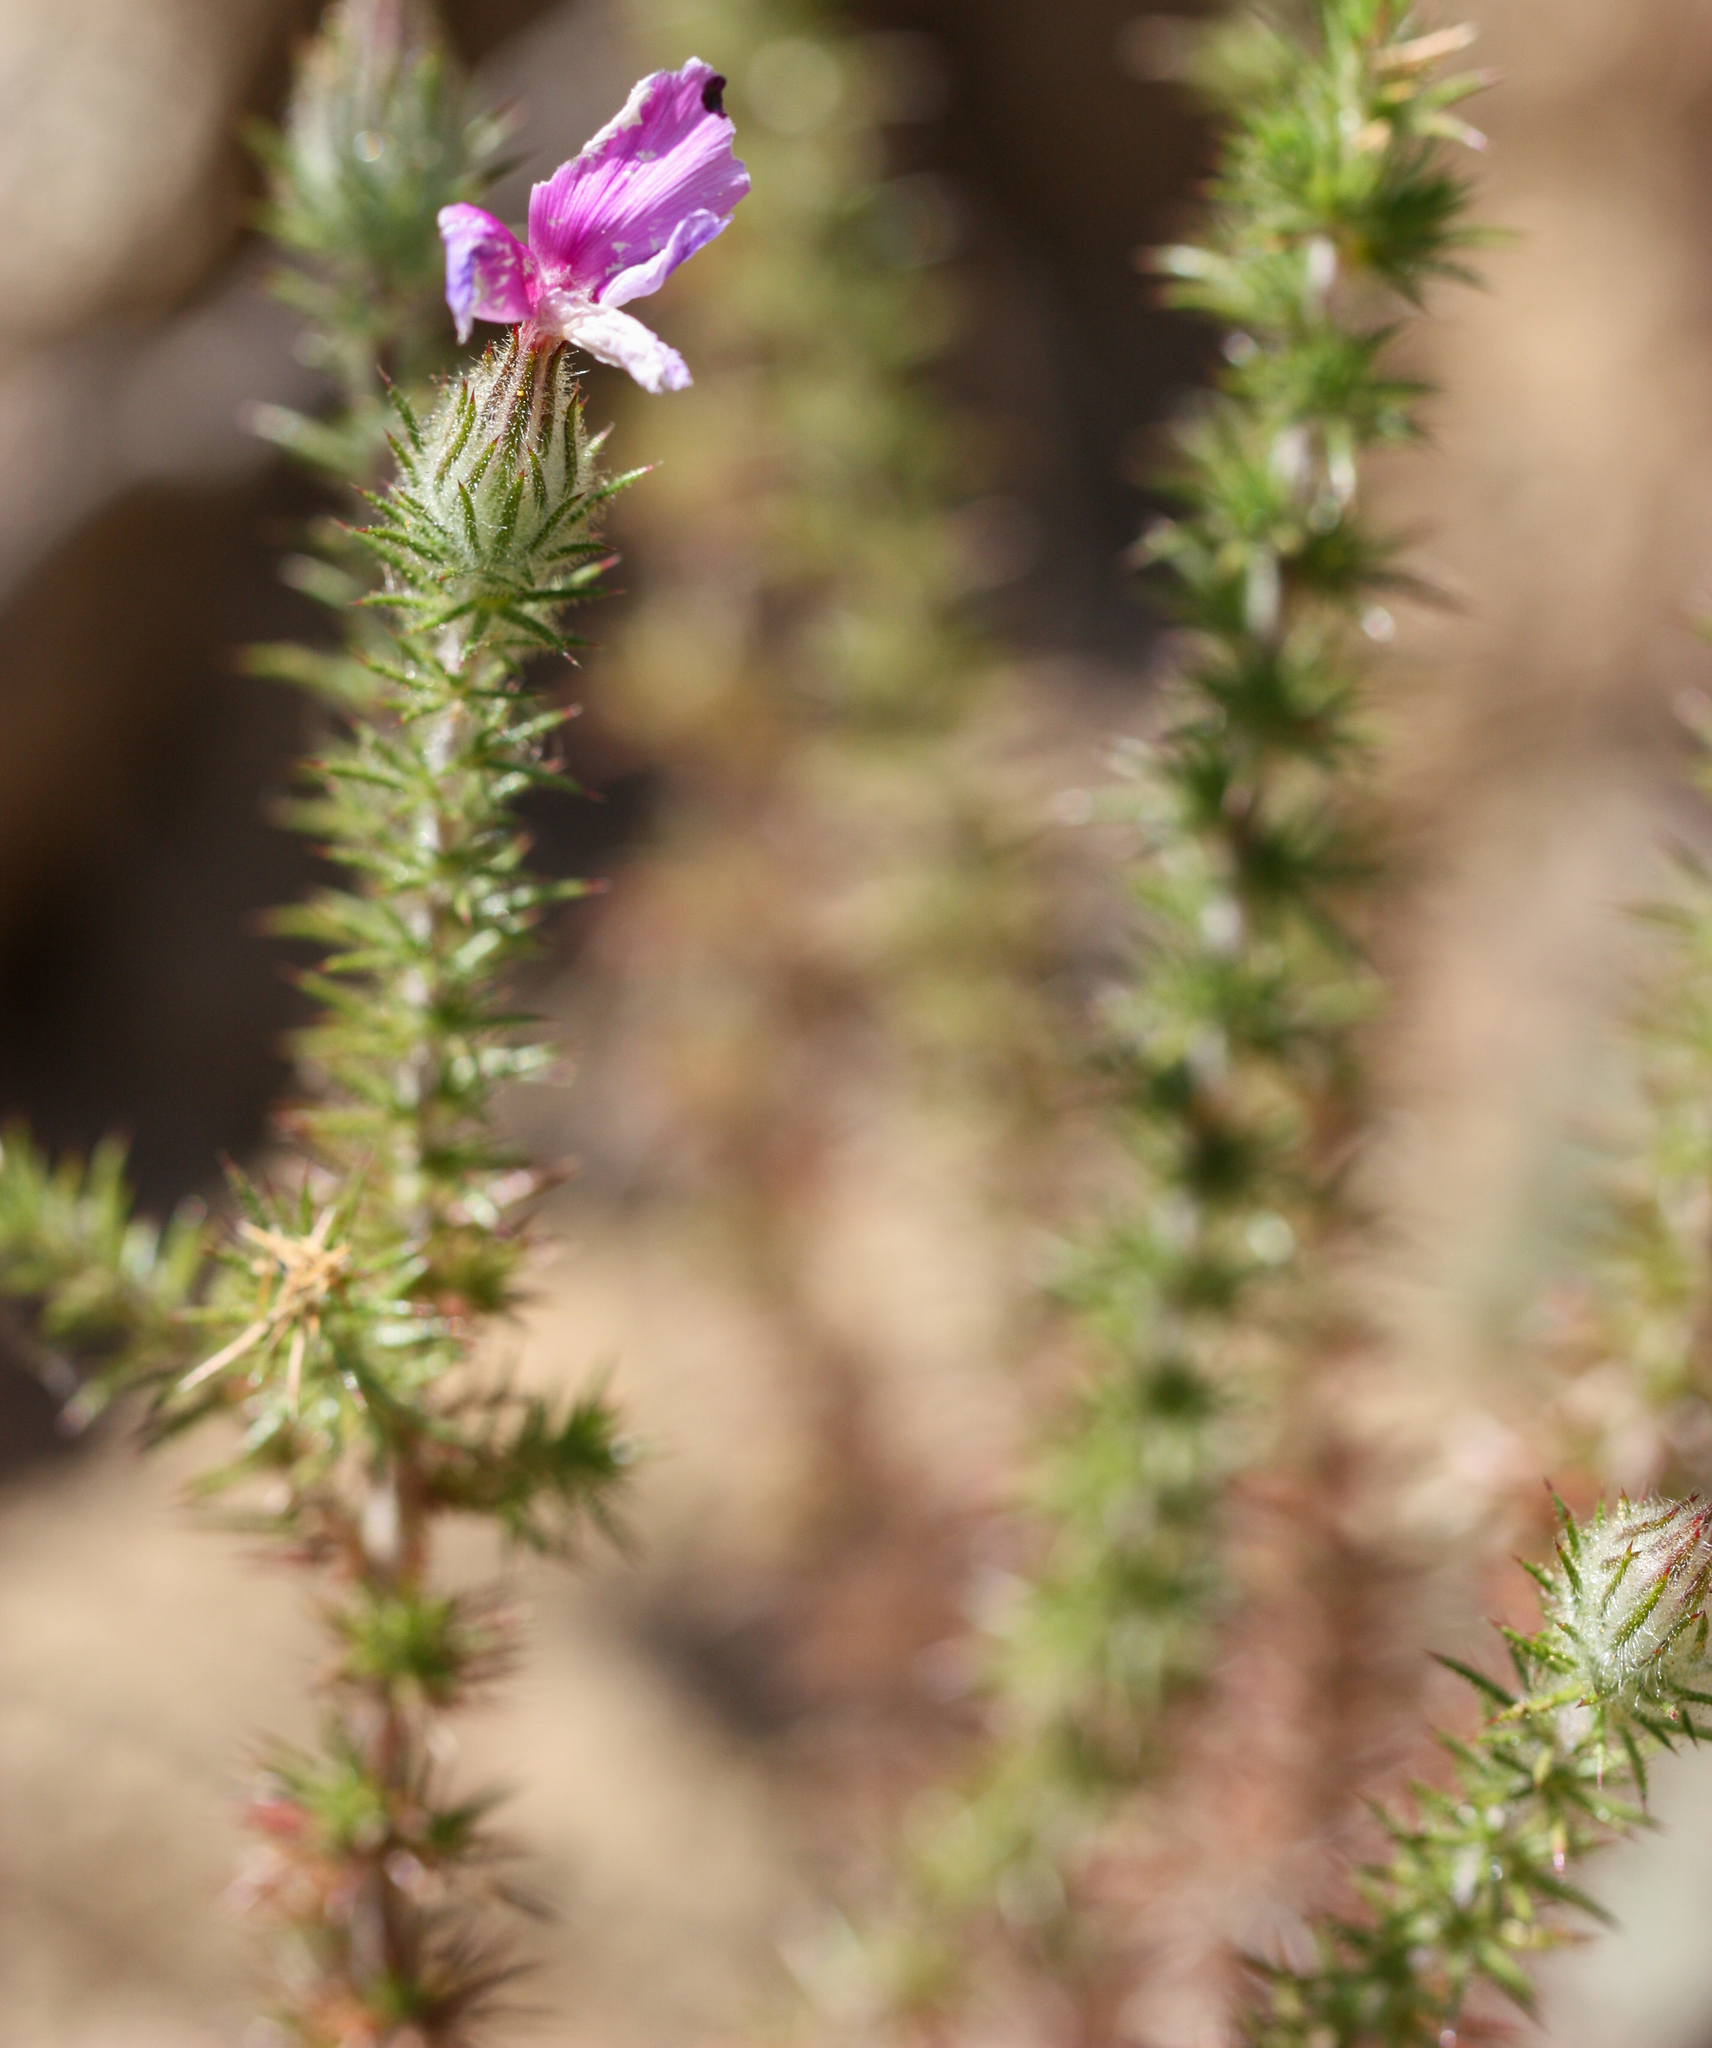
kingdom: Plantae
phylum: Tracheophyta
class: Magnoliopsida
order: Ericales
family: Polemoniaceae
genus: Linanthus
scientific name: Linanthus californicus
